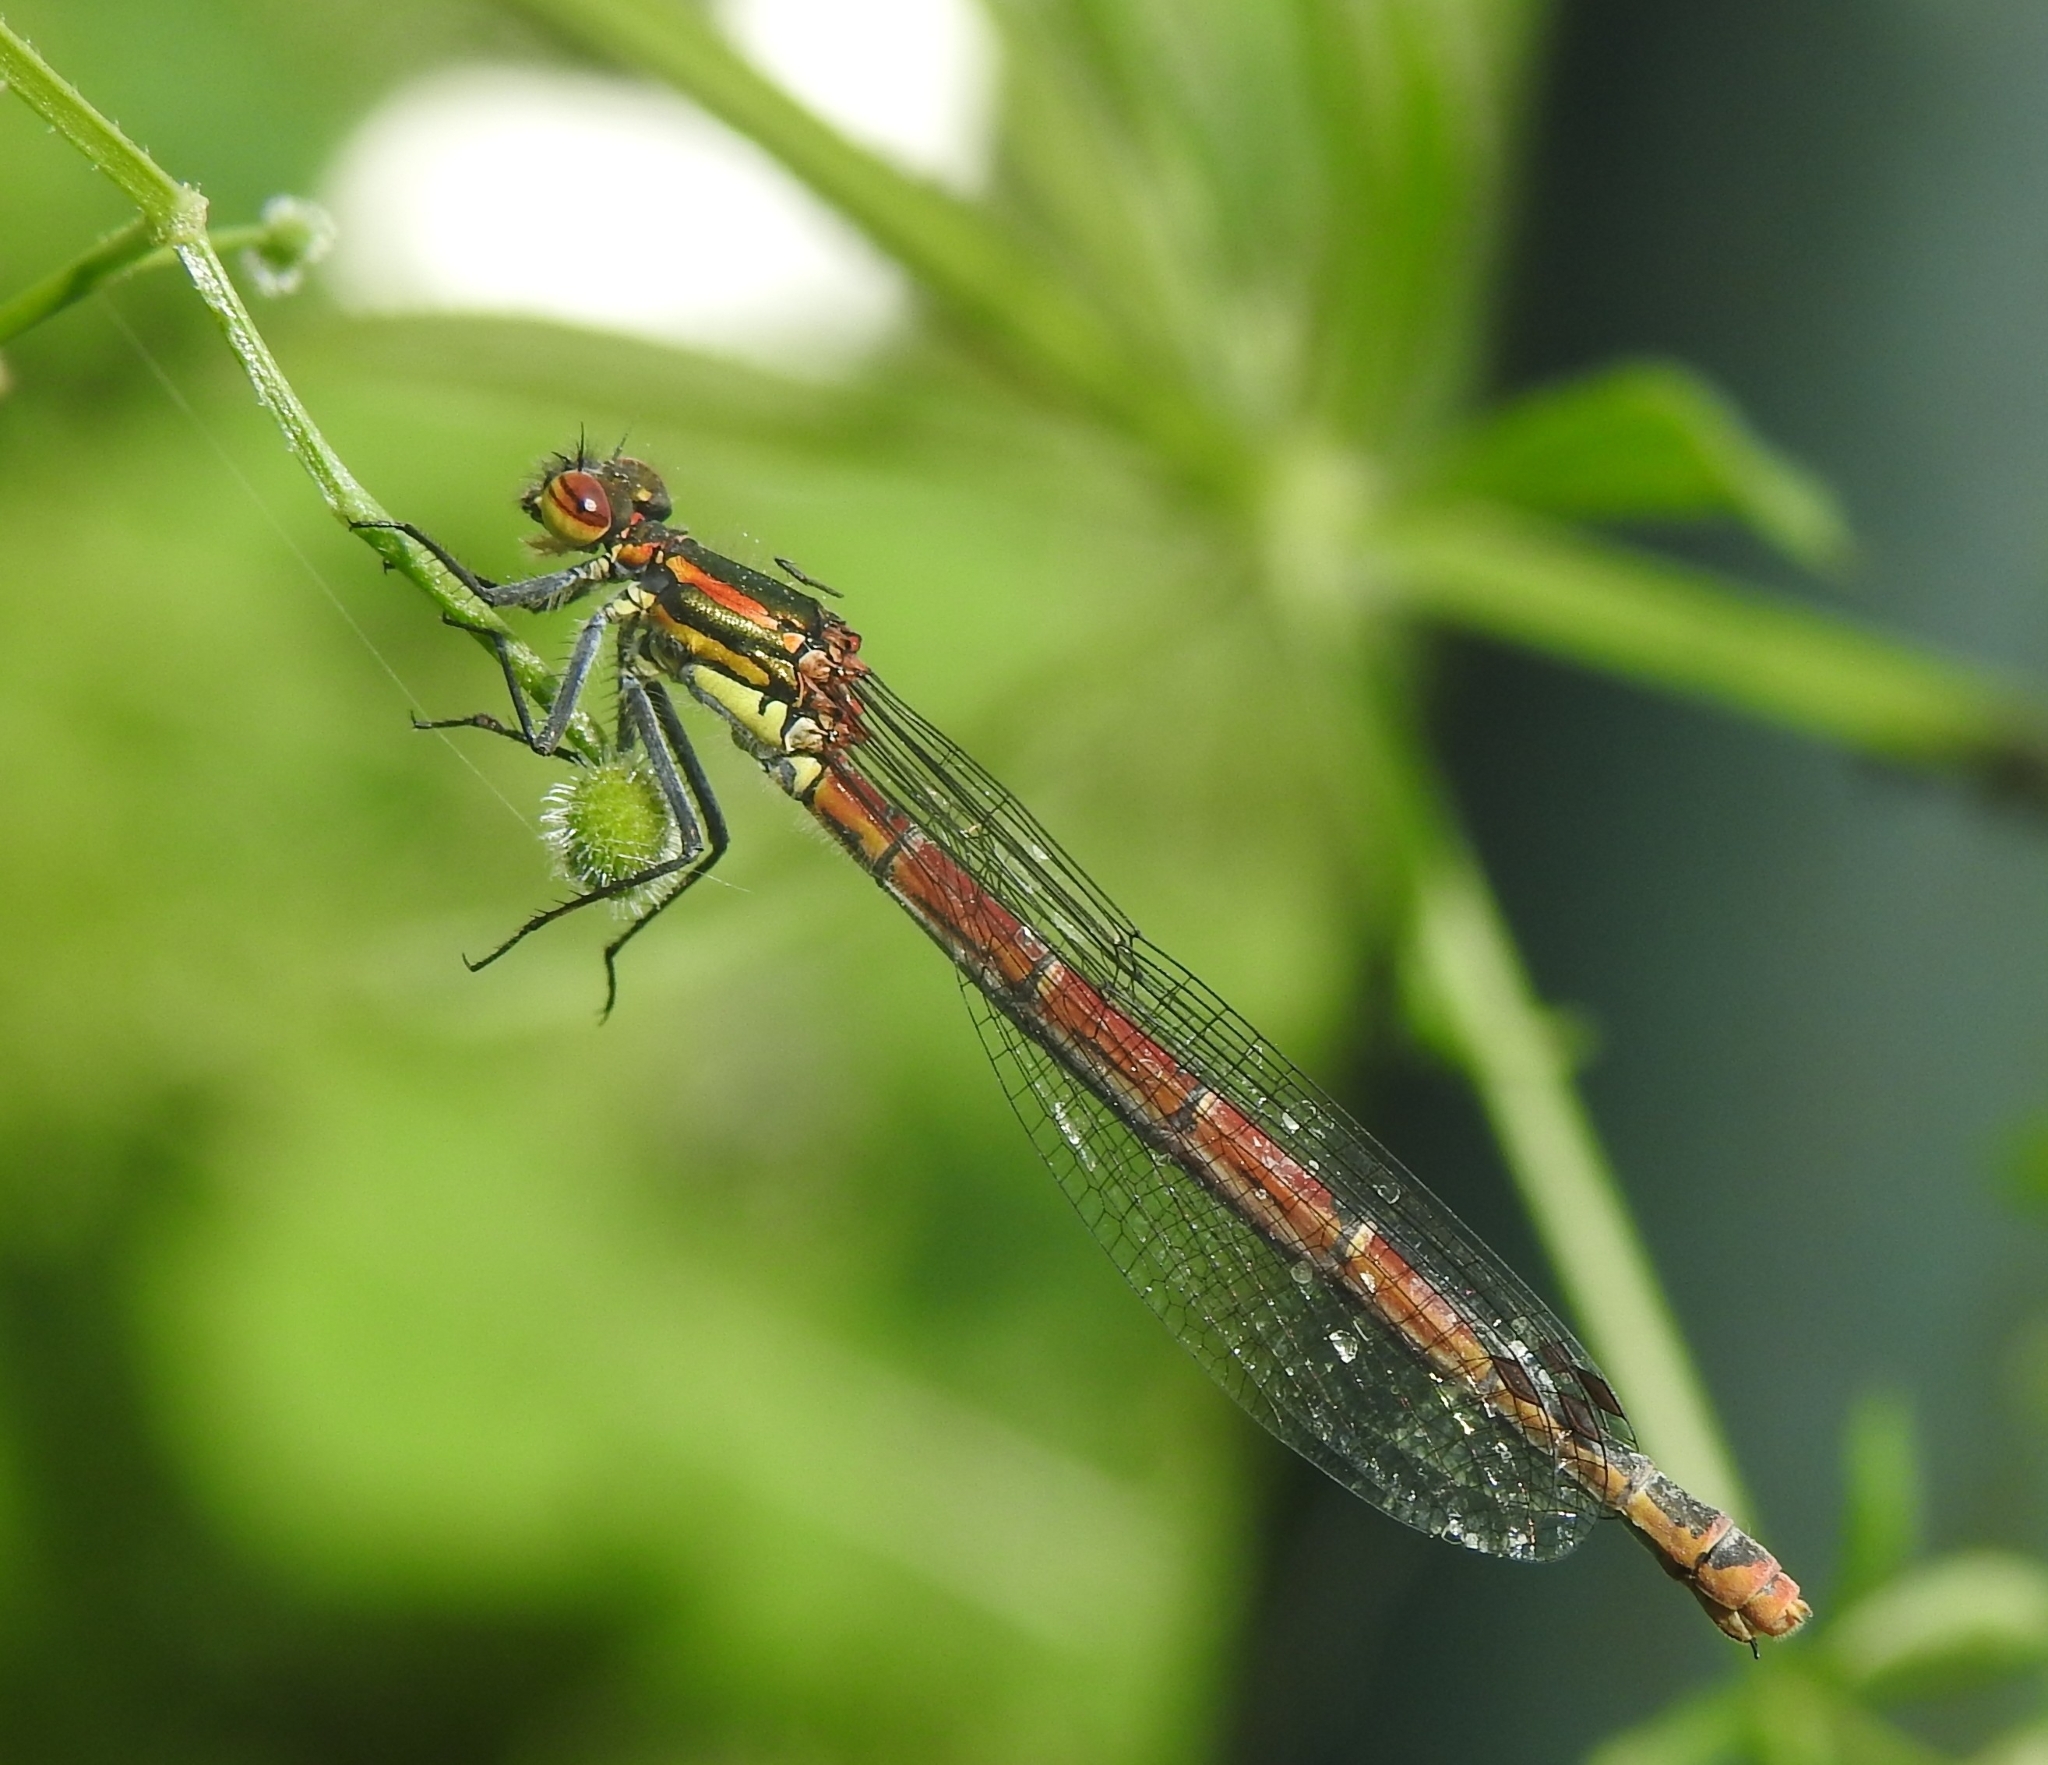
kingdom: Animalia
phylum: Arthropoda
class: Insecta
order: Odonata
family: Coenagrionidae
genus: Pyrrhosoma
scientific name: Pyrrhosoma nymphula
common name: Large red damsel
